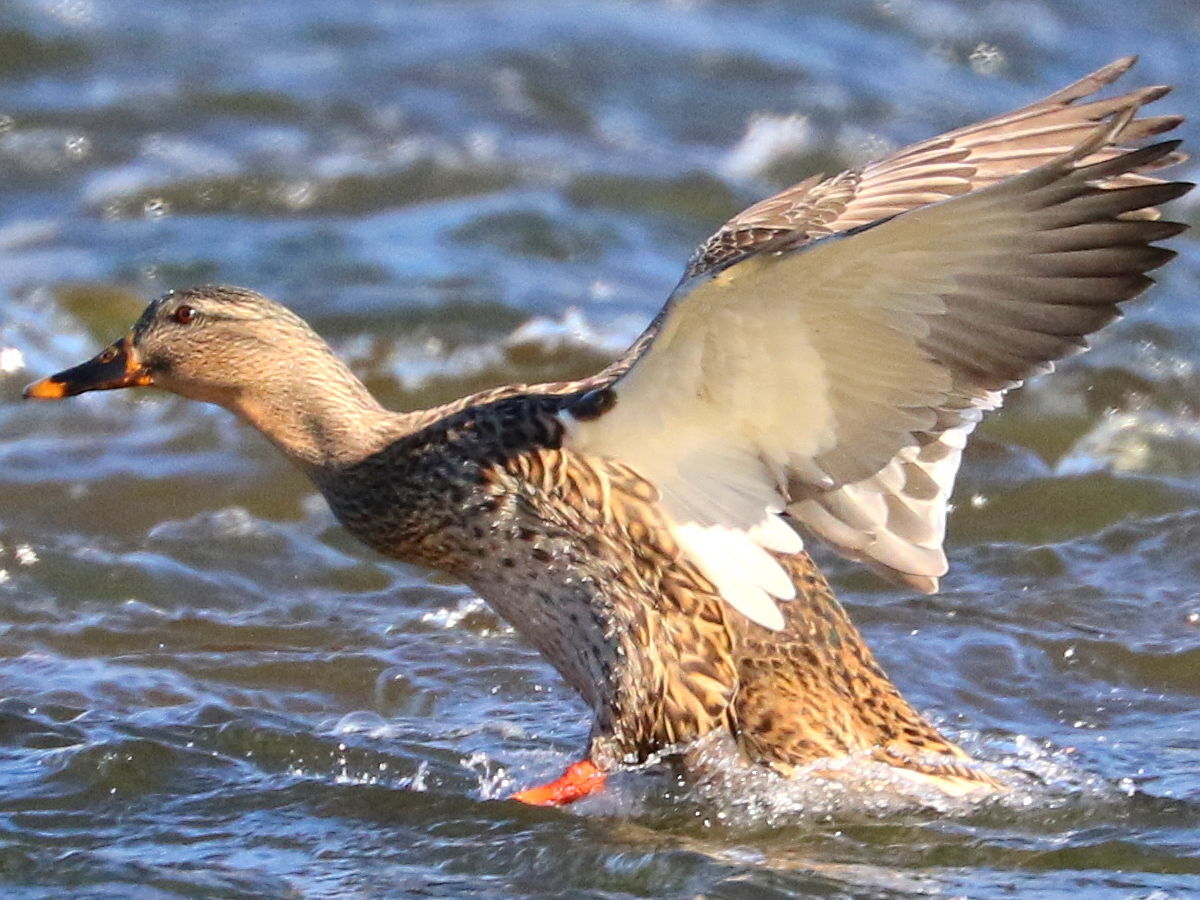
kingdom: Animalia
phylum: Chordata
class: Aves
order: Anseriformes
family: Anatidae
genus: Anas
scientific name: Anas platyrhynchos
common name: Mallard
